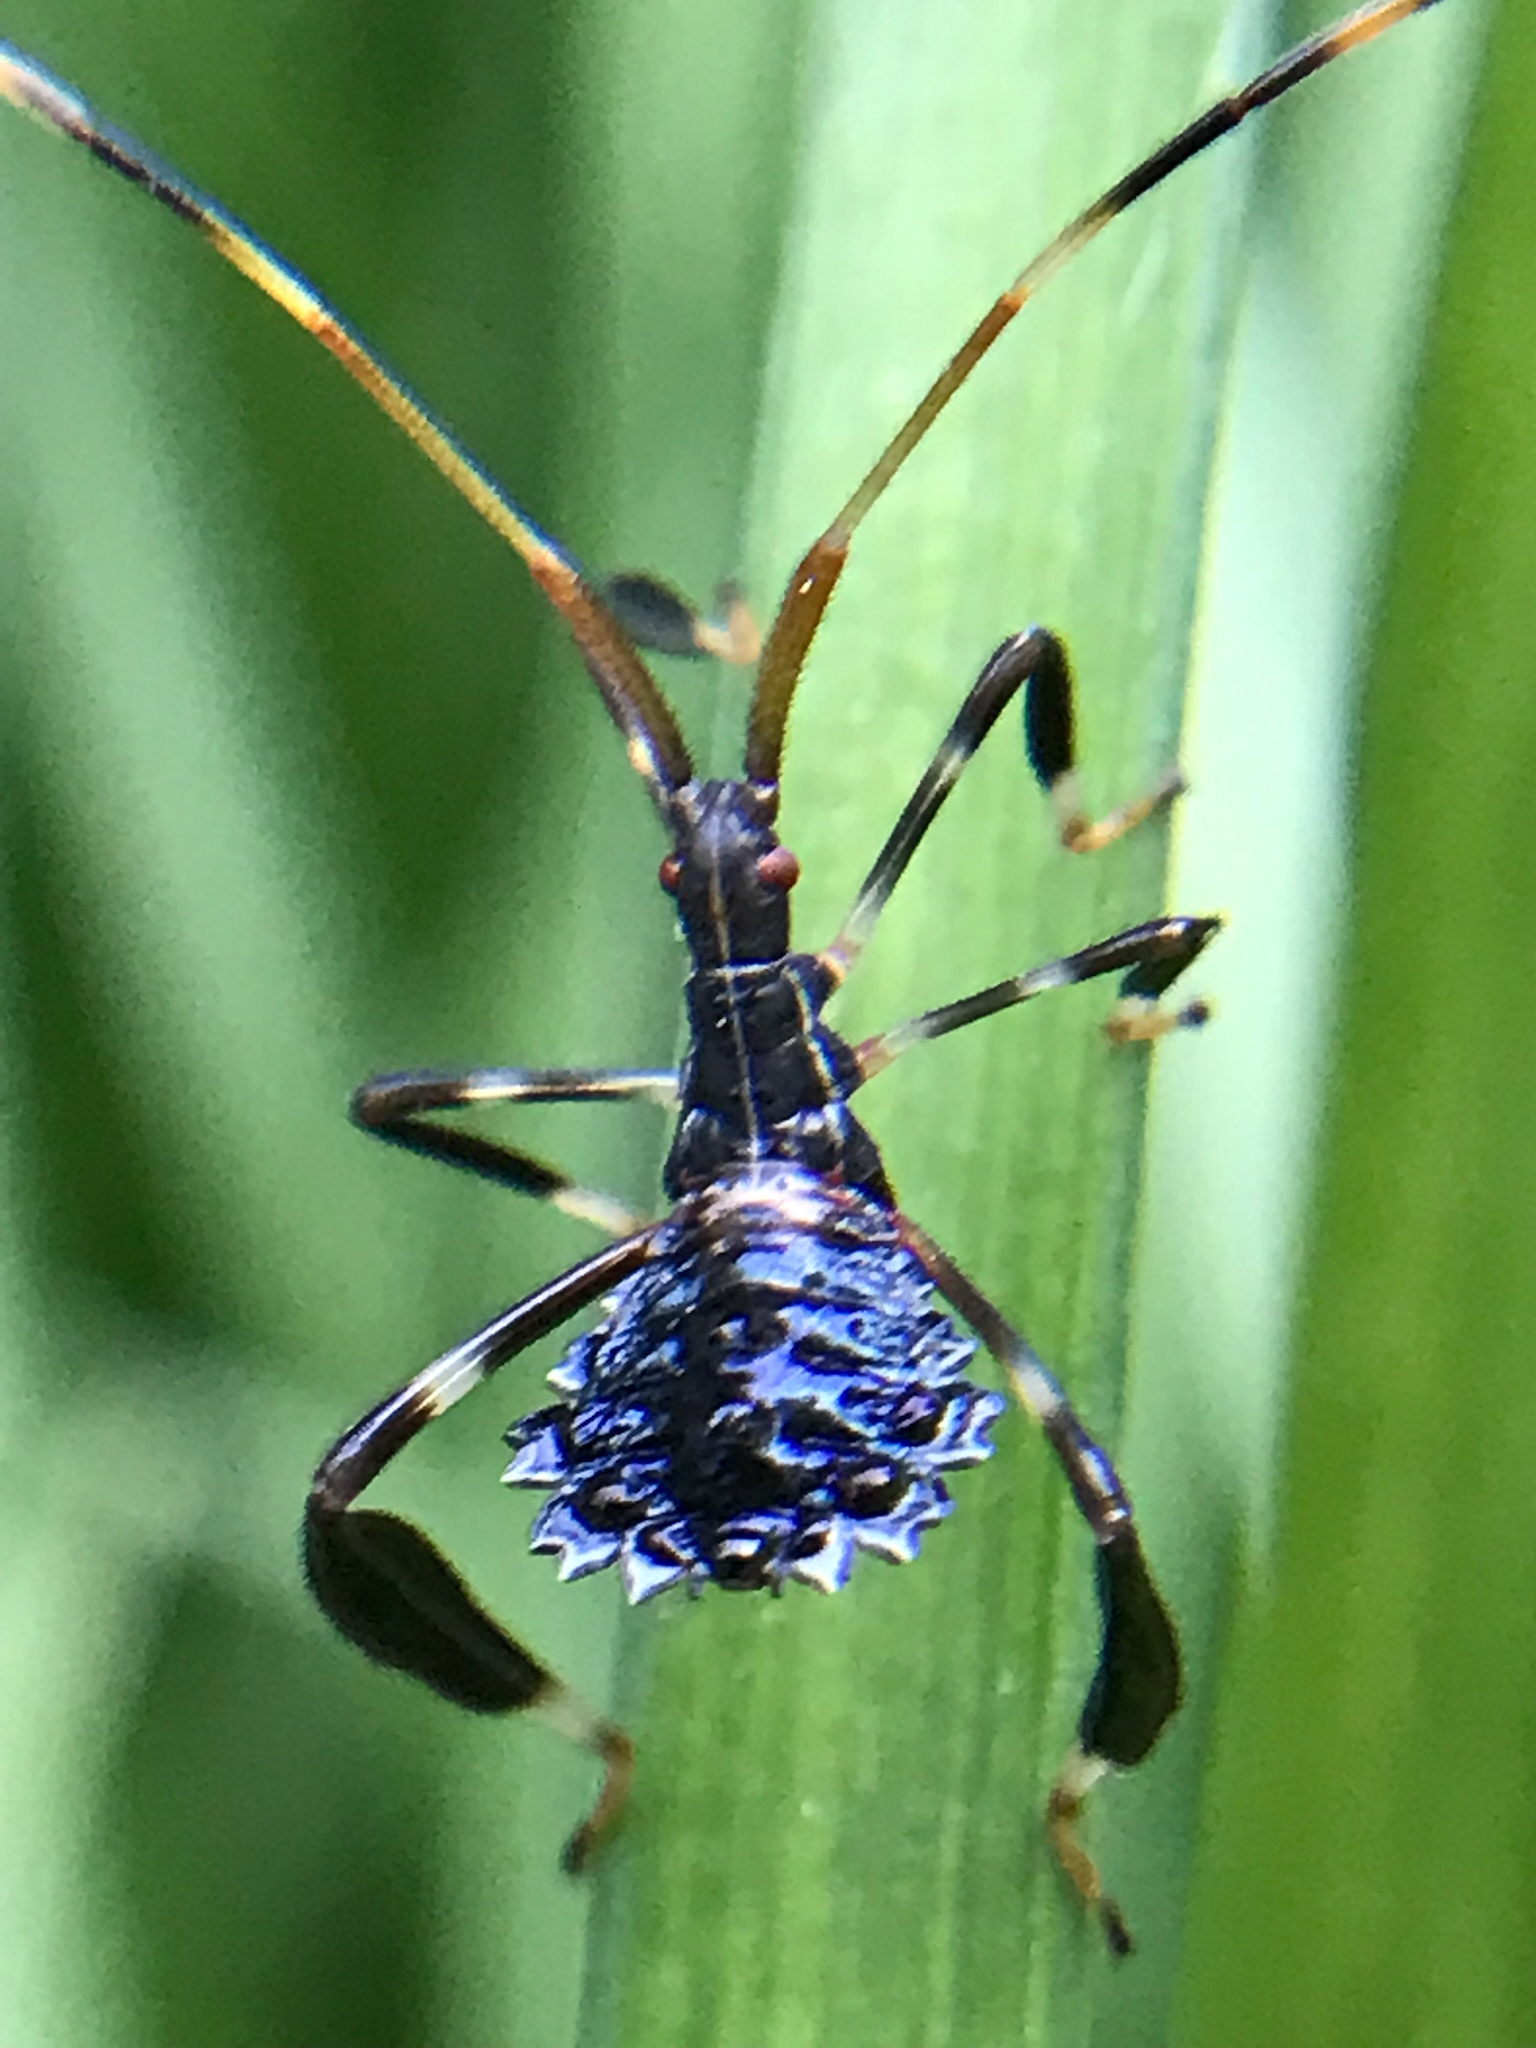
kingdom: Animalia
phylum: Arthropoda
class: Insecta
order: Hemiptera
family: Coreidae
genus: Acanthocephala
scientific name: Acanthocephala terminalis
